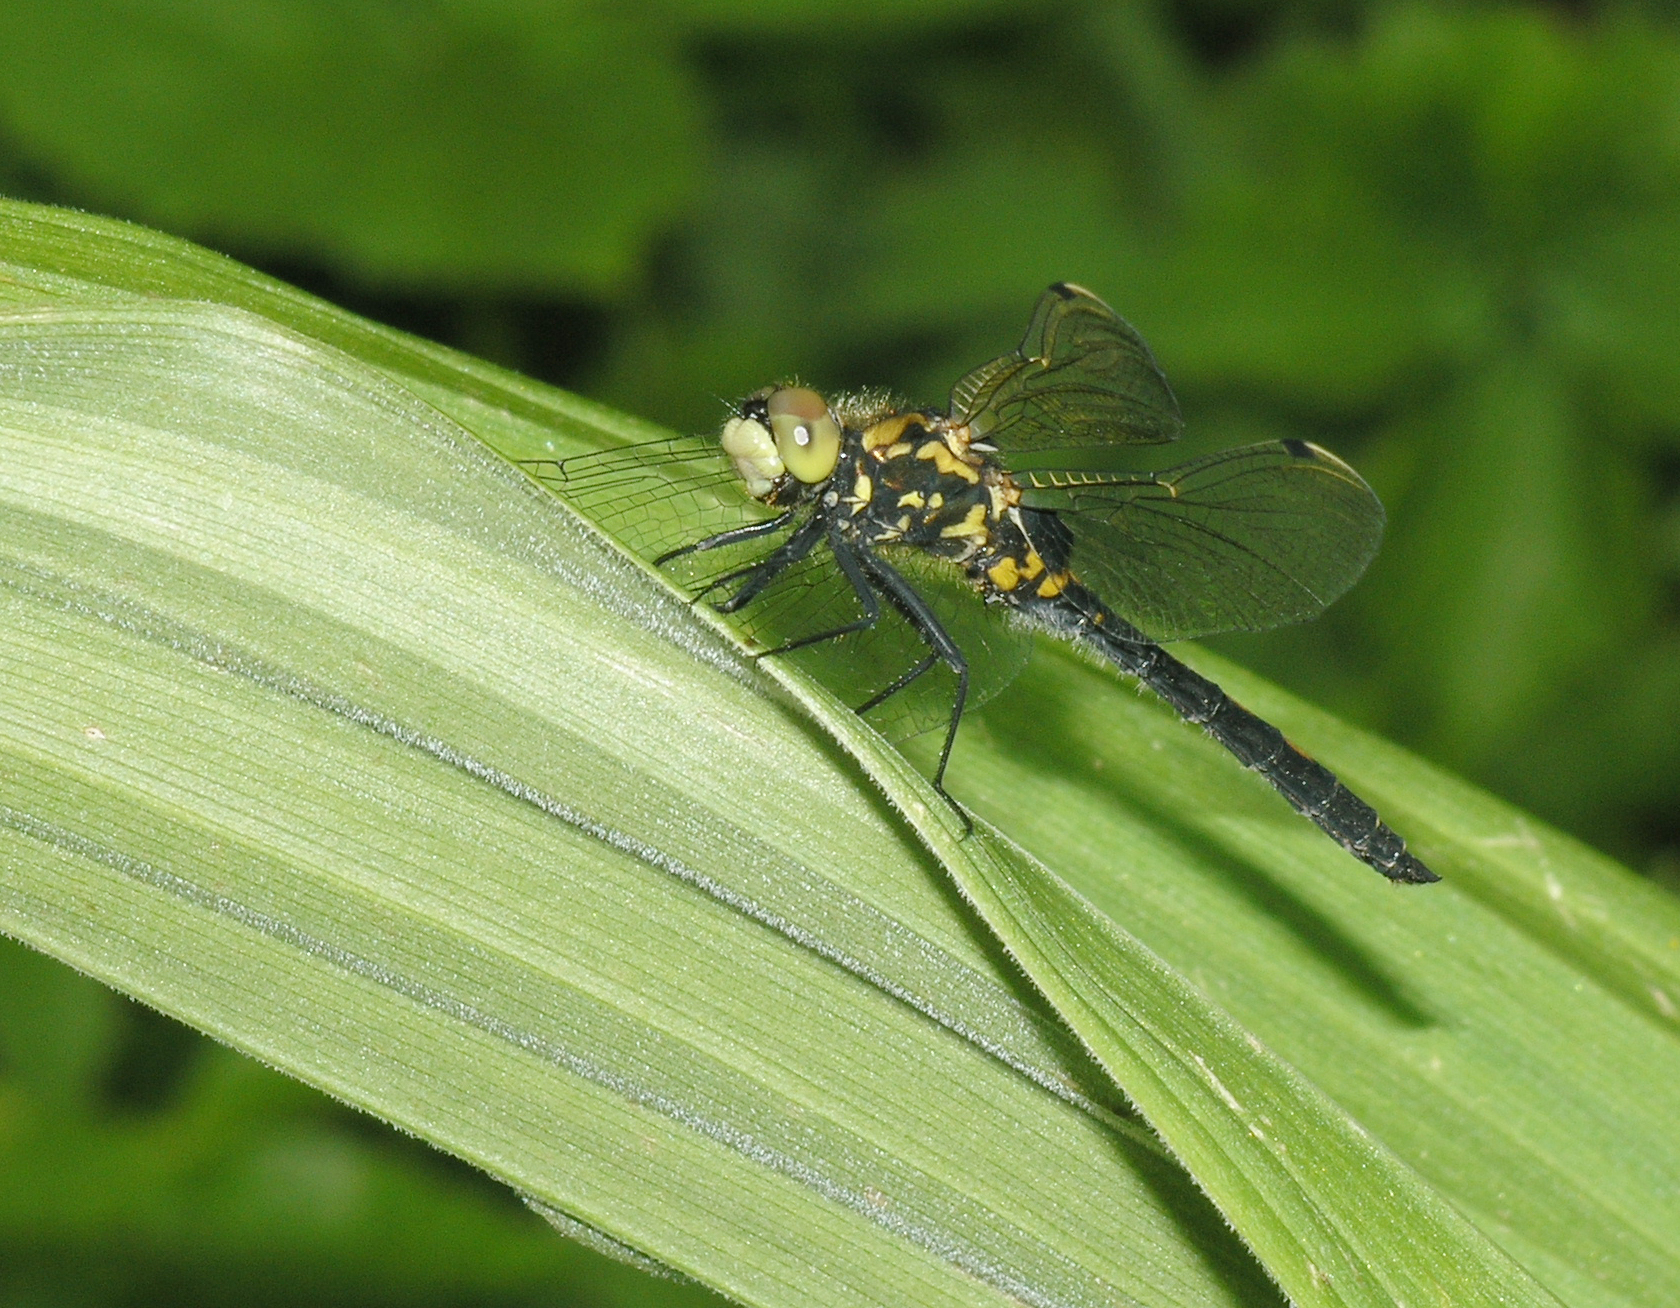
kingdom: Animalia
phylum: Arthropoda
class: Insecta
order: Odonata
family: Libellulidae
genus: Leucorrhinia
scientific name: Leucorrhinia dubia
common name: White-faced darter
